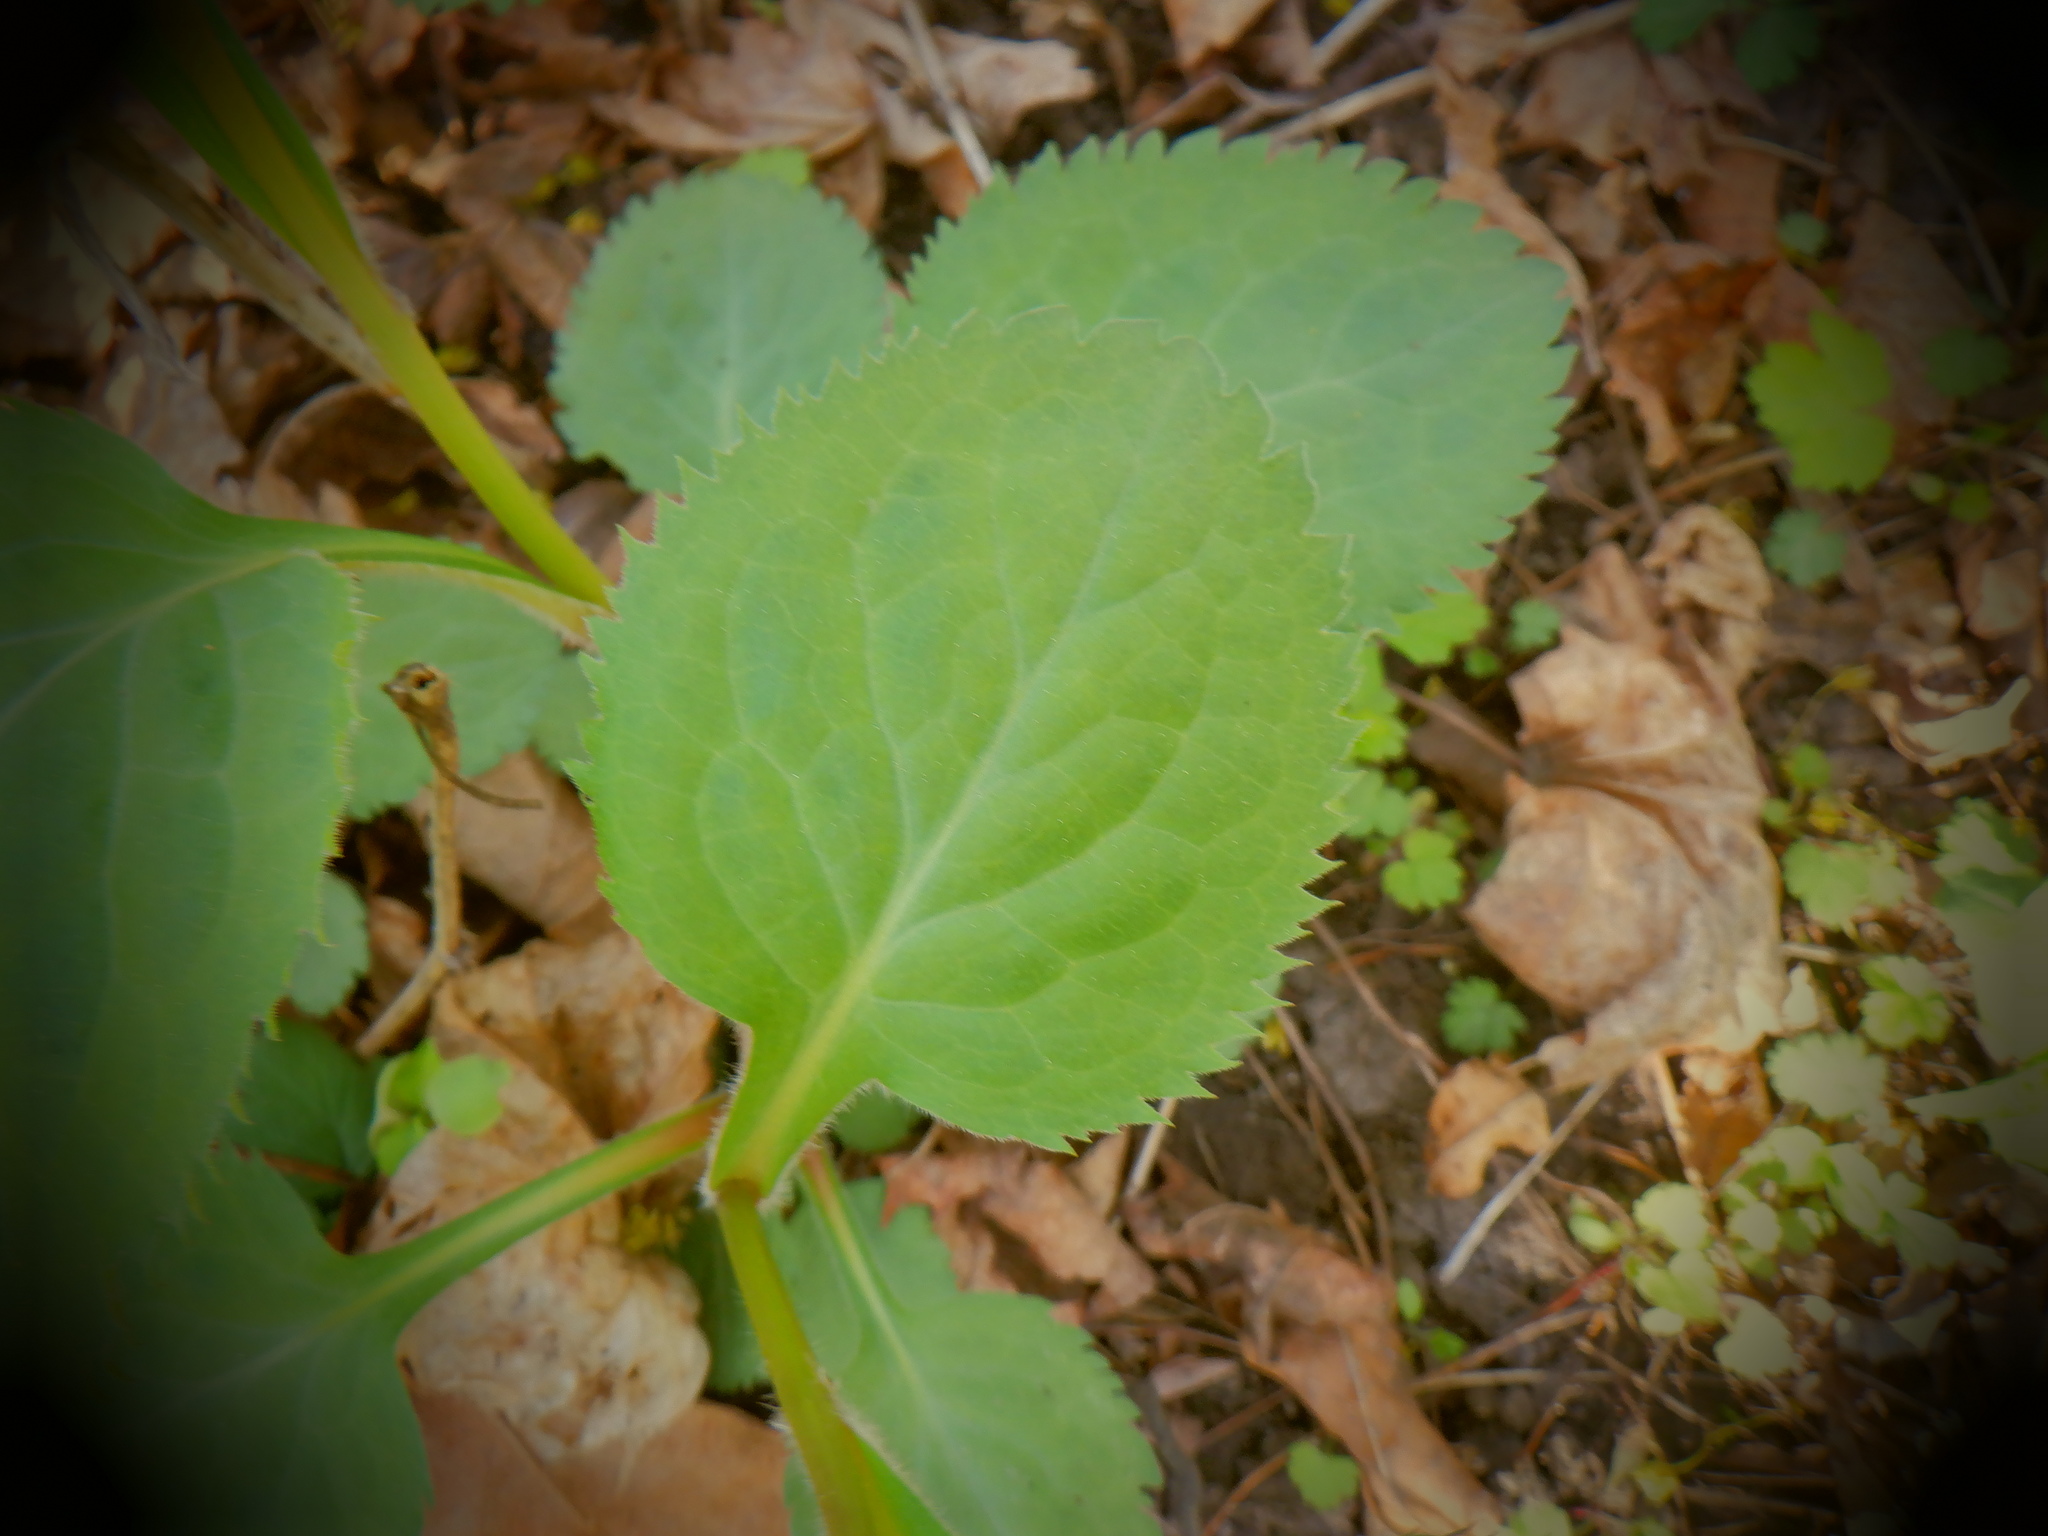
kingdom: Plantae
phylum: Tracheophyta
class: Magnoliopsida
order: Asterales
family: Asteraceae
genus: Solidago
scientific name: Solidago flexicaulis
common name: Zig-zag goldenrod
